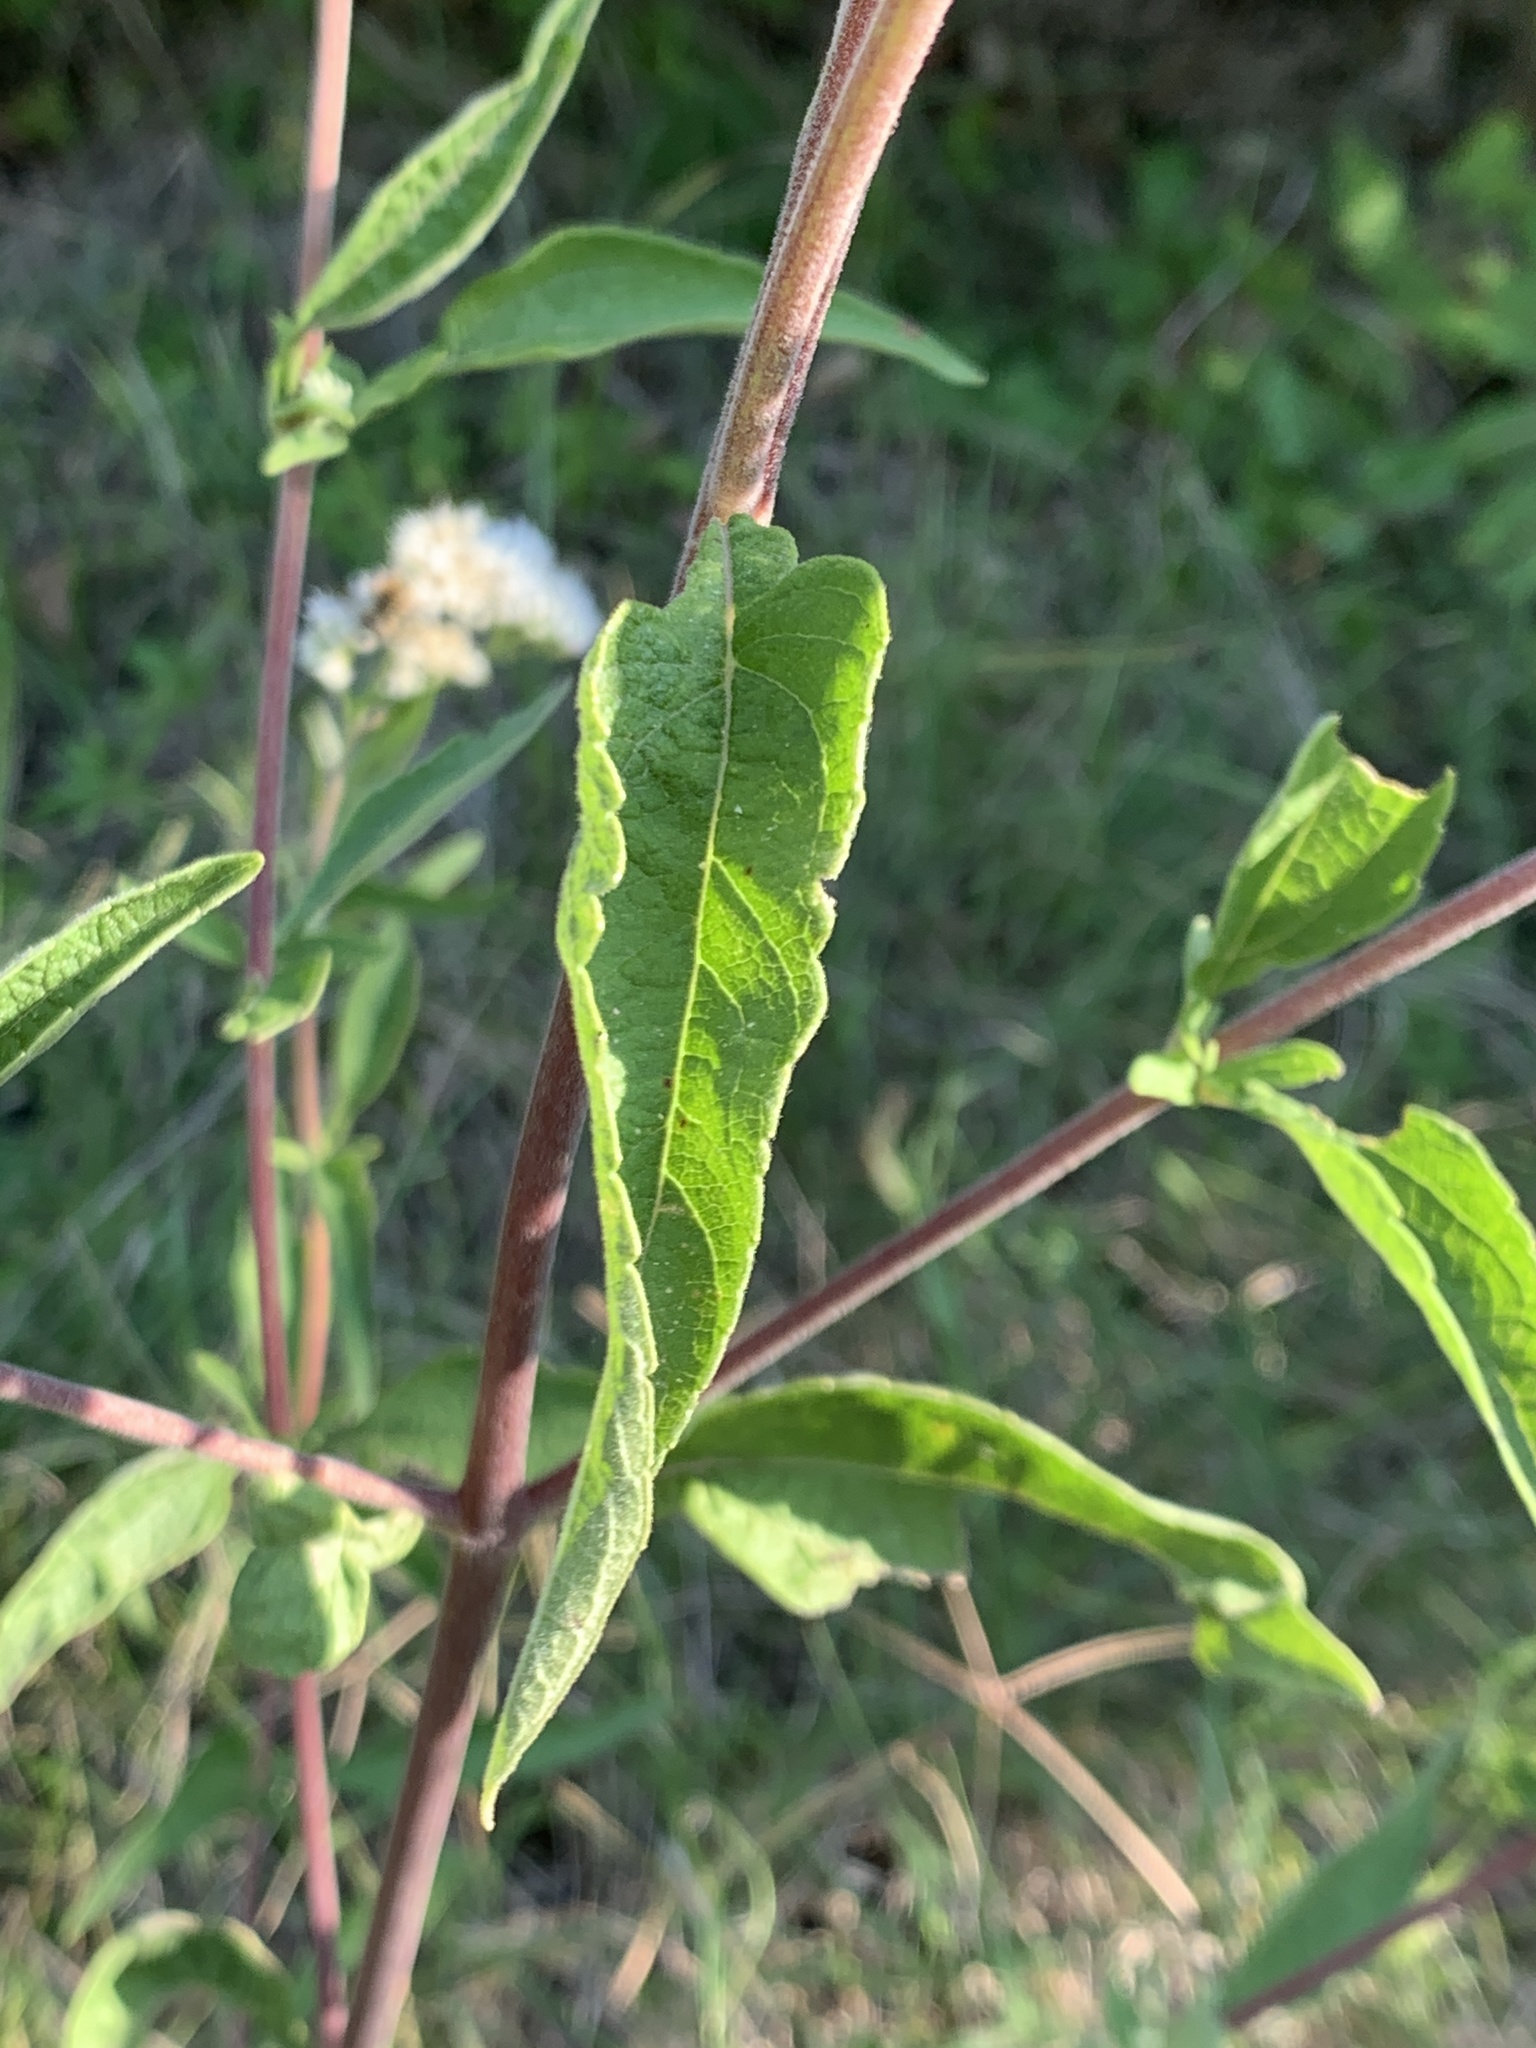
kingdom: Plantae
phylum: Tracheophyta
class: Magnoliopsida
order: Asterales
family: Asteraceae
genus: Austroeupatorium
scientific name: Austroeupatorium inulifolium
